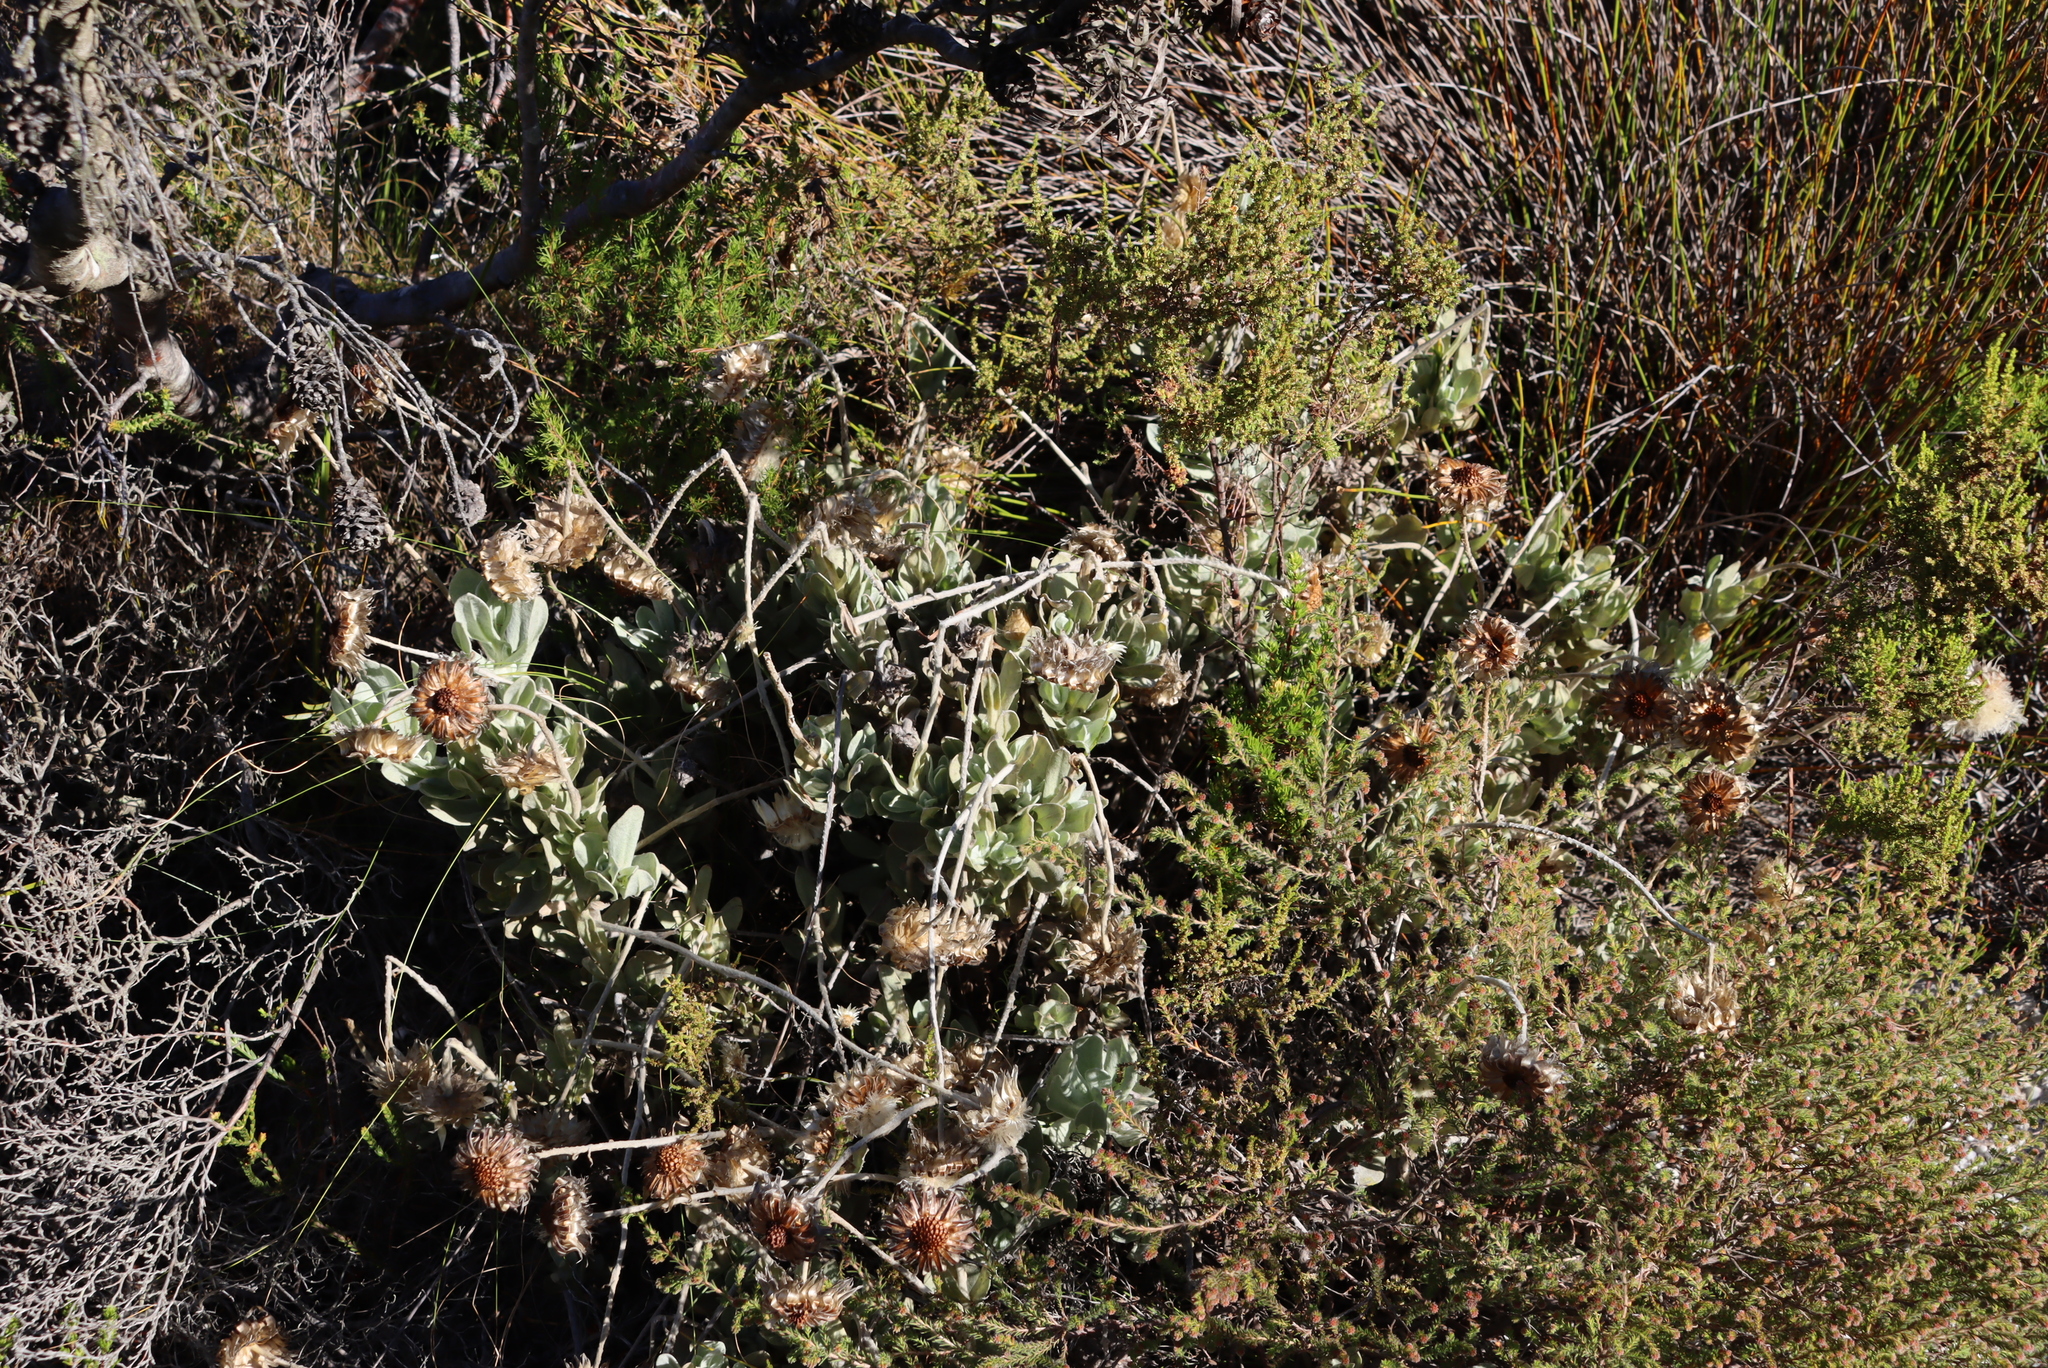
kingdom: Plantae
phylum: Tracheophyta
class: Magnoliopsida
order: Asterales
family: Asteraceae
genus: Syncarpha
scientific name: Syncarpha speciosissima
